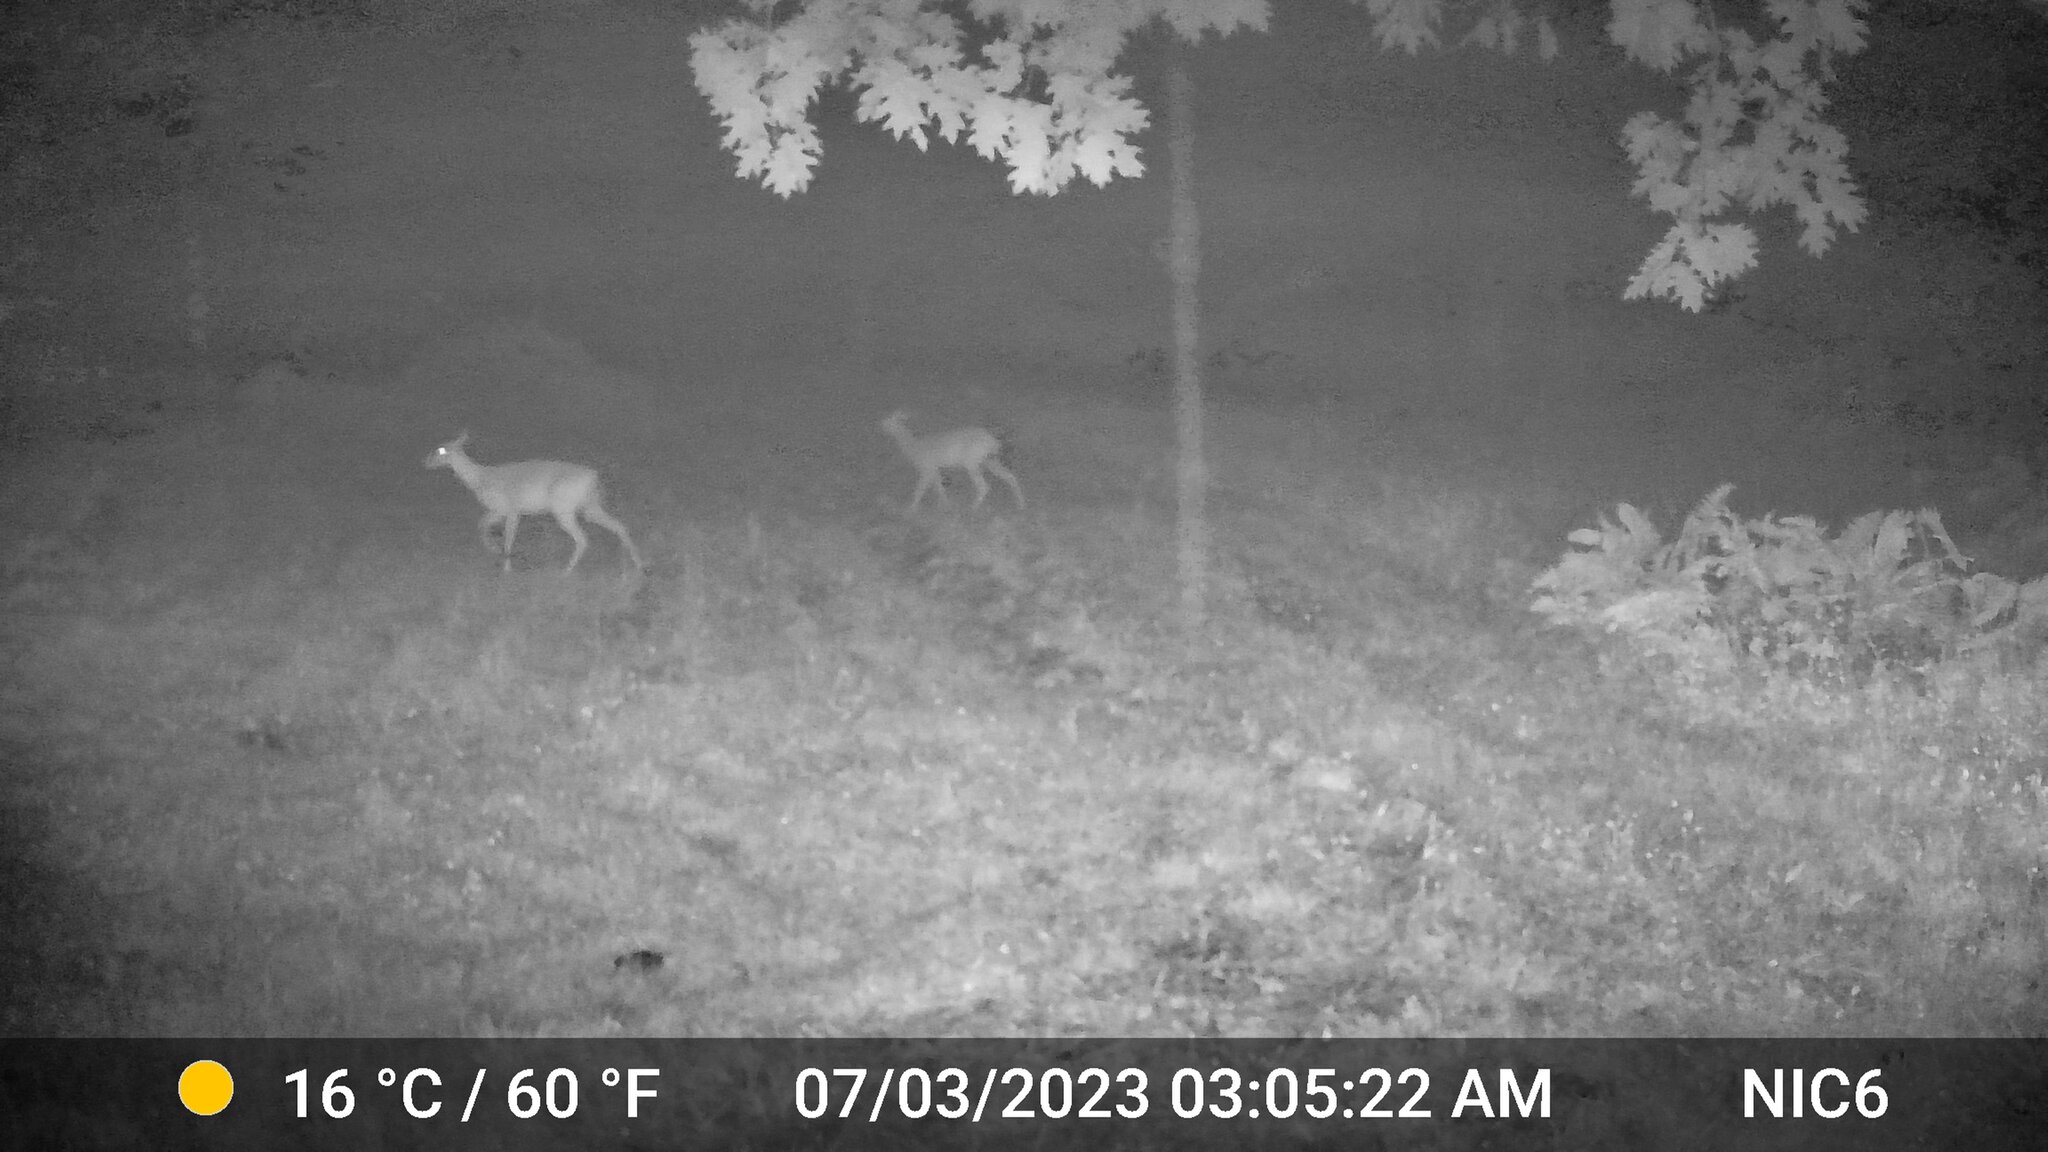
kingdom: Animalia
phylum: Chordata
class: Mammalia
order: Artiodactyla
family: Cervidae
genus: Odocoileus
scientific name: Odocoileus virginianus
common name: White-tailed deer
